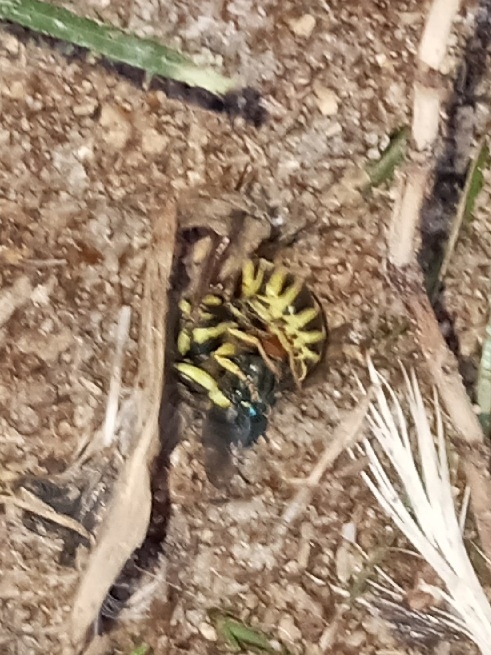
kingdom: Animalia
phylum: Arthropoda
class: Insecta
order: Hymenoptera
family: Vespidae
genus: Vespula
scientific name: Vespula squamosa
